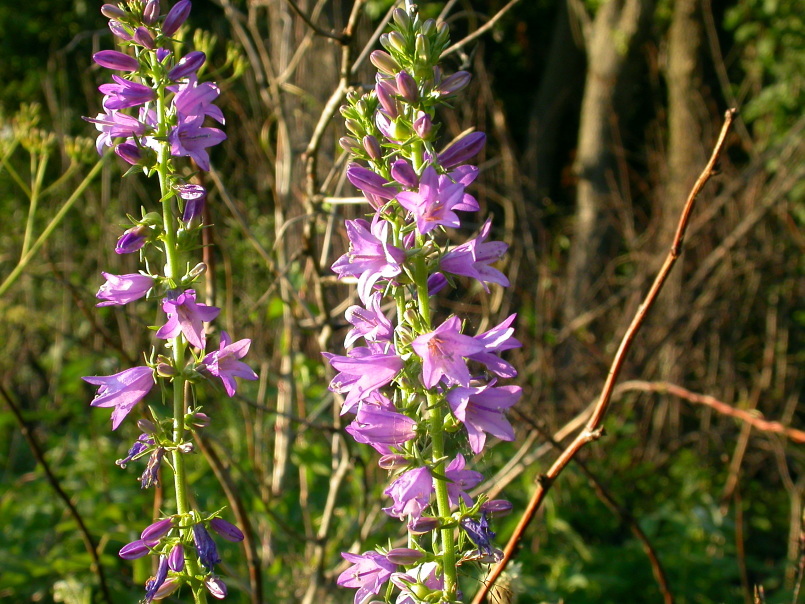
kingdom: Plantae
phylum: Tracheophyta
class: Magnoliopsida
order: Asterales
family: Campanulaceae
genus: Campanula
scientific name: Campanula bononiensis
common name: Pale bellflower
